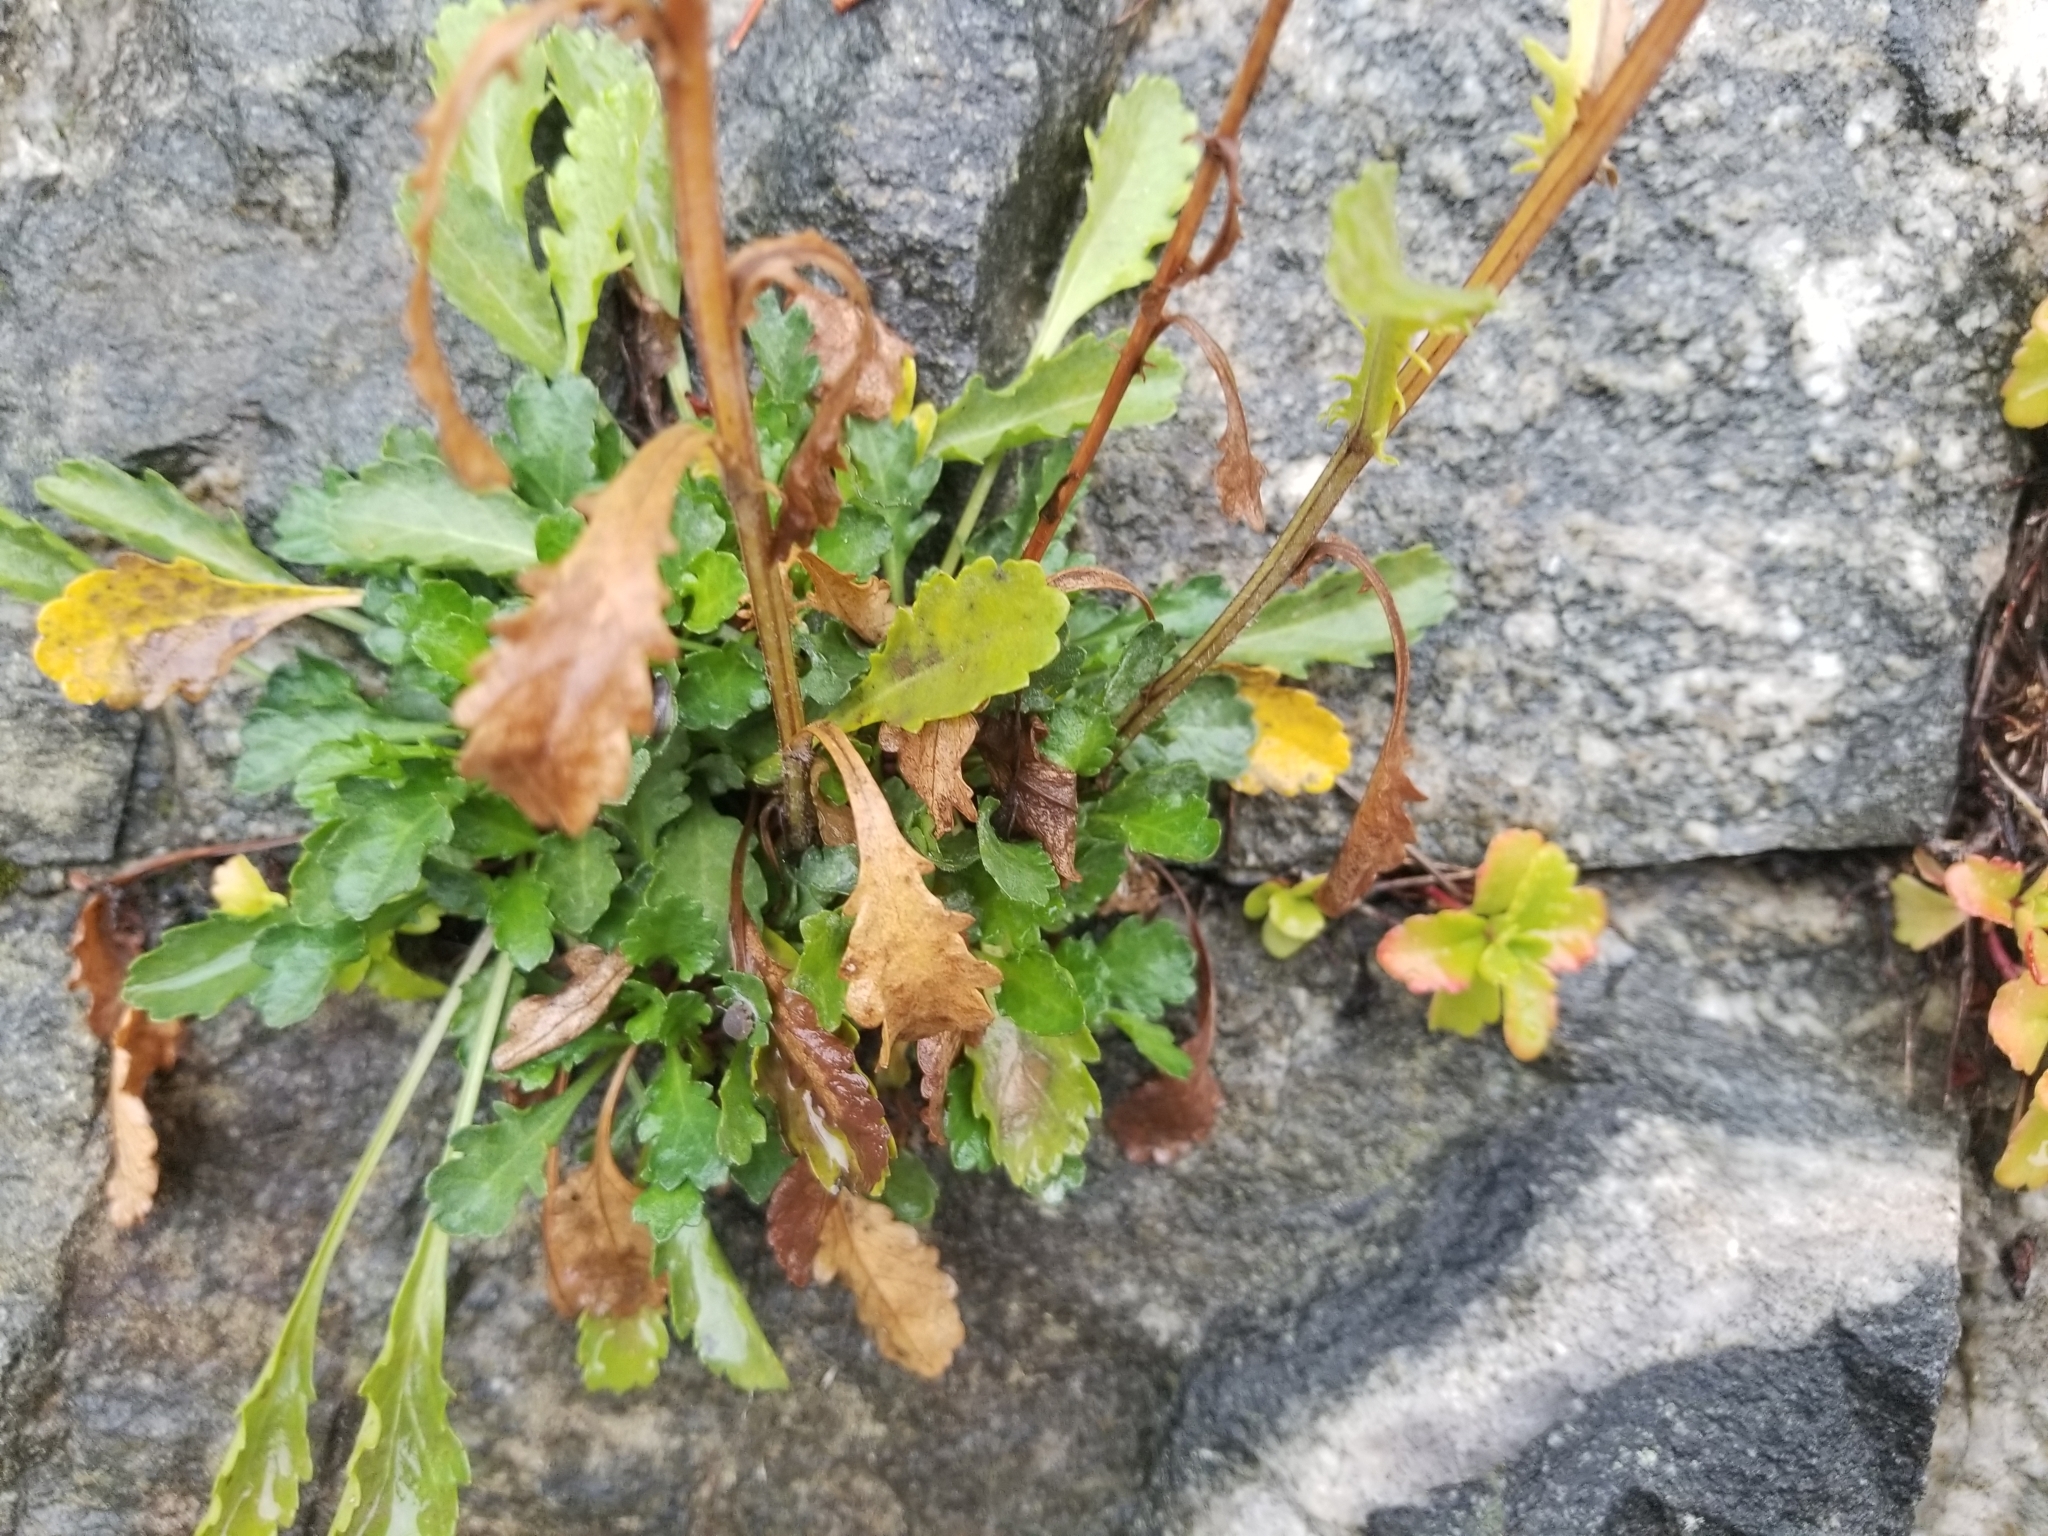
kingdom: Plantae
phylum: Tracheophyta
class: Magnoliopsida
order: Asterales
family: Asteraceae
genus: Leucanthemum
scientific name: Leucanthemum vulgare
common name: Oxeye daisy
